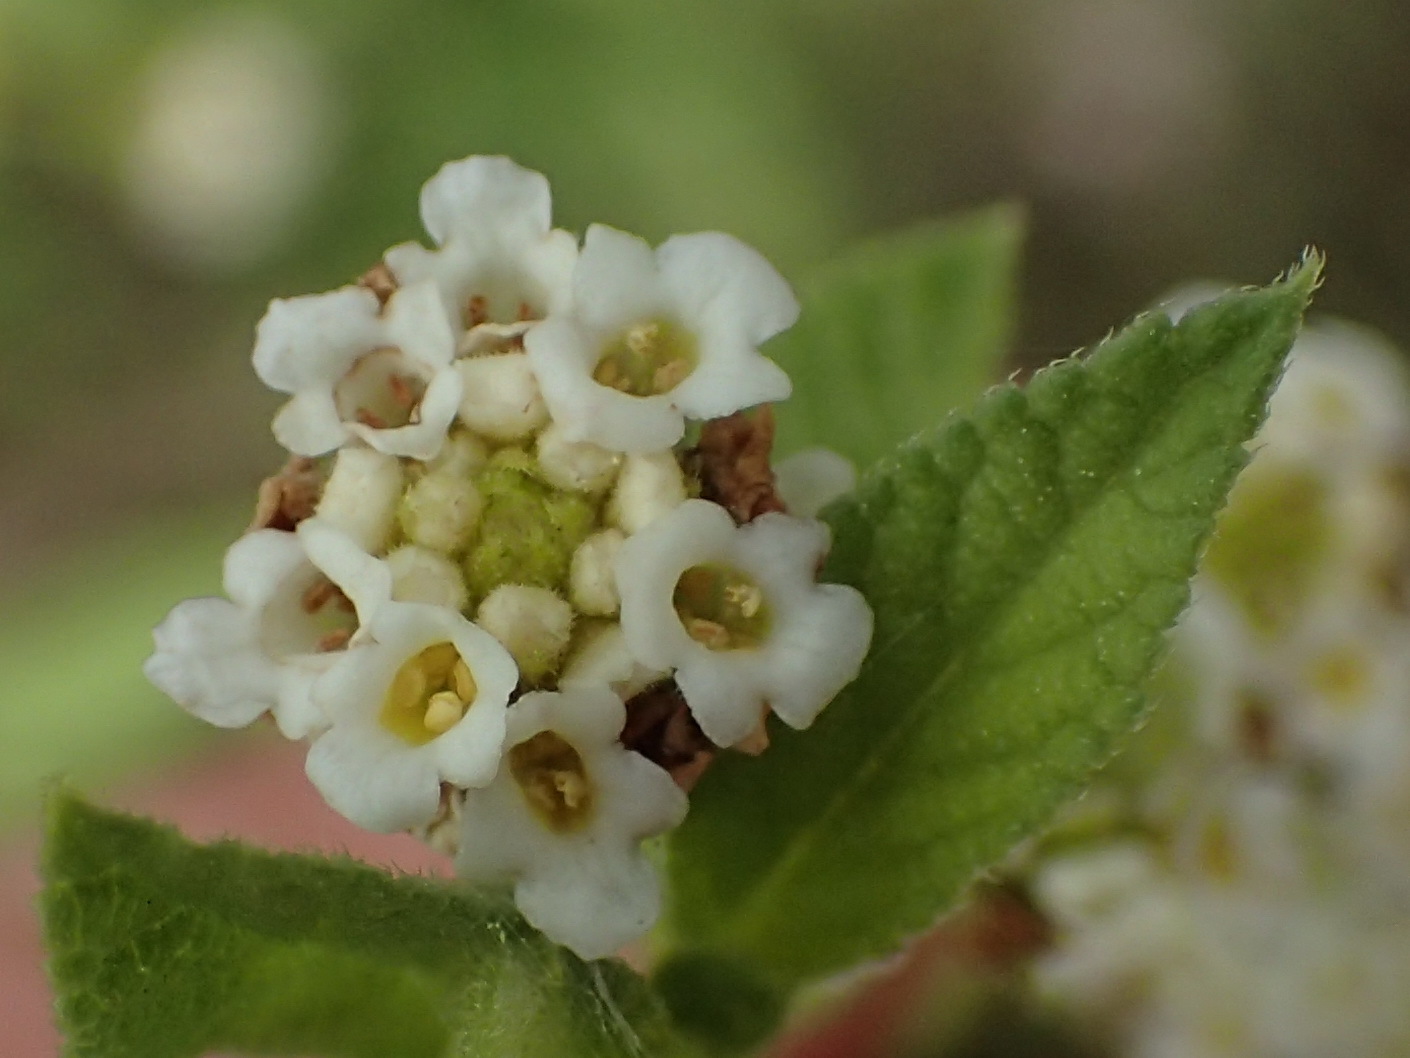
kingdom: Plantae
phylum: Tracheophyta
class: Magnoliopsida
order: Lamiales
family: Verbenaceae
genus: Lippia
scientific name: Lippia rehmannii
